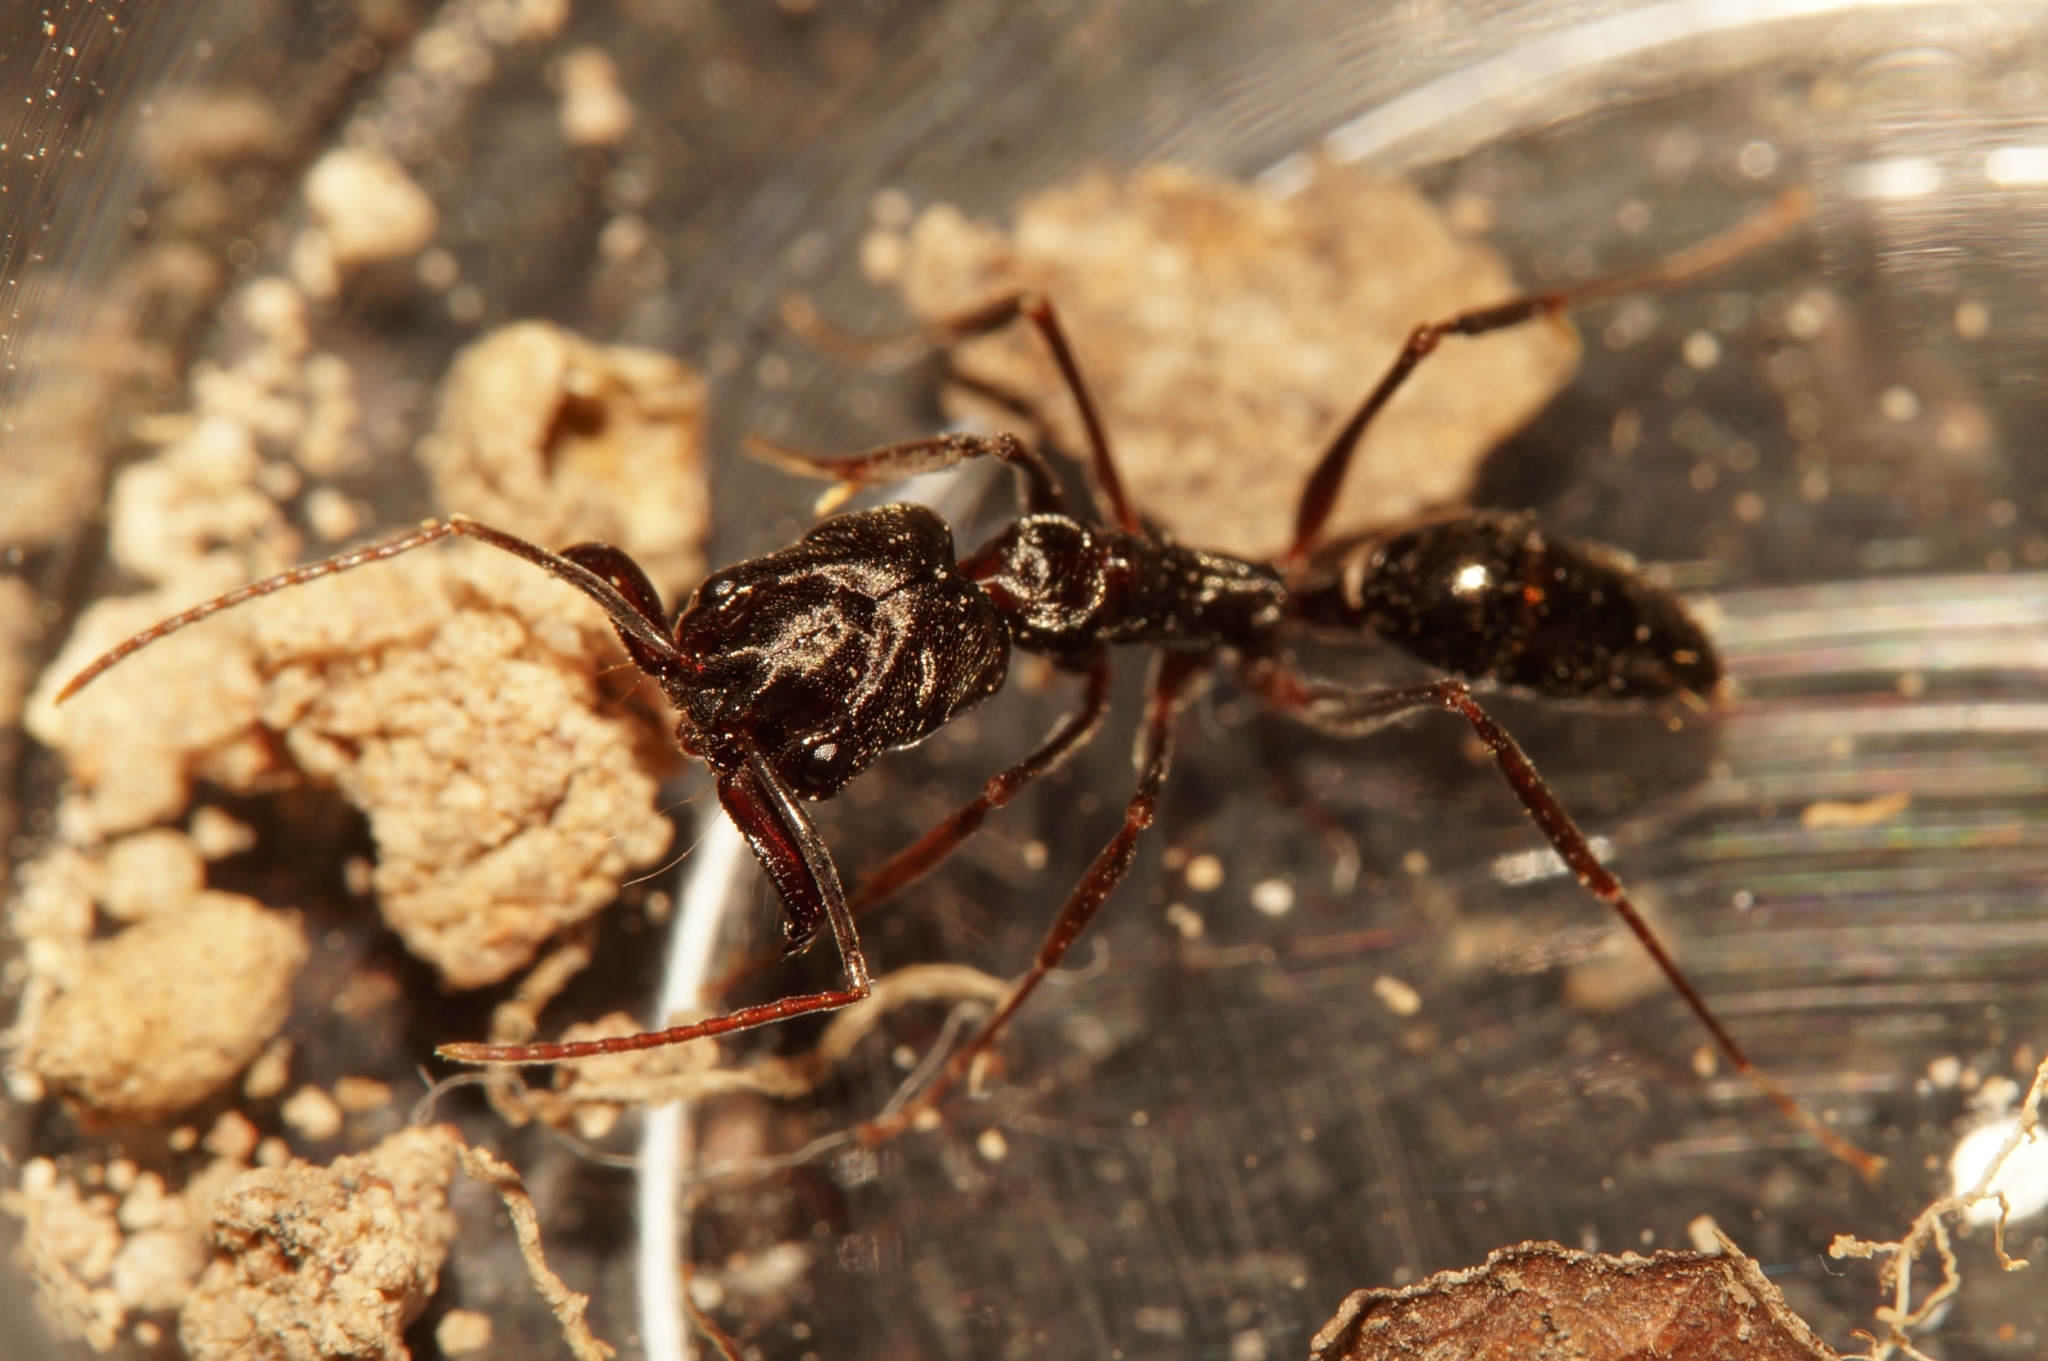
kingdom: Animalia
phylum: Arthropoda
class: Insecta
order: Hymenoptera
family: Formicidae
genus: Odontomachus
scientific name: Odontomachus simillimus
